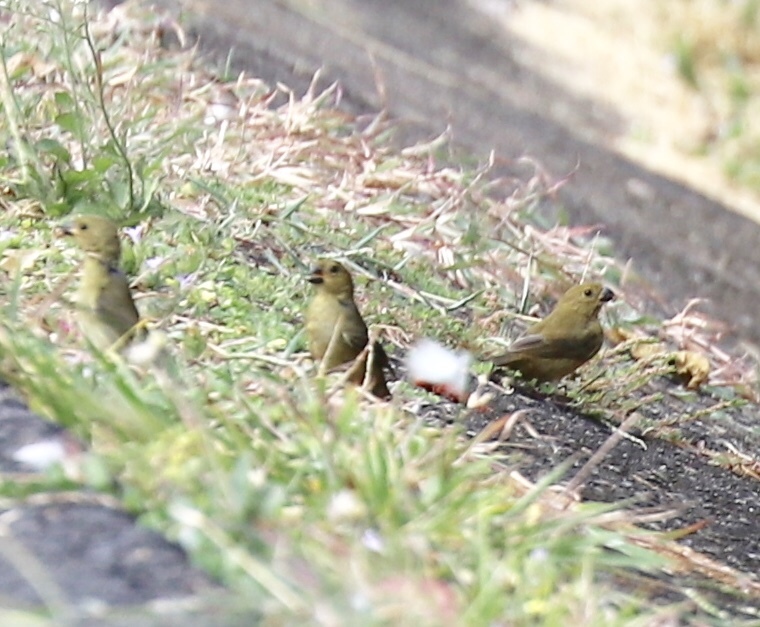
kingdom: Animalia
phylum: Chordata
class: Aves
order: Passeriformes
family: Thraupidae
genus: Sporophila
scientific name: Sporophila corvina
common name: Variable seedeater
